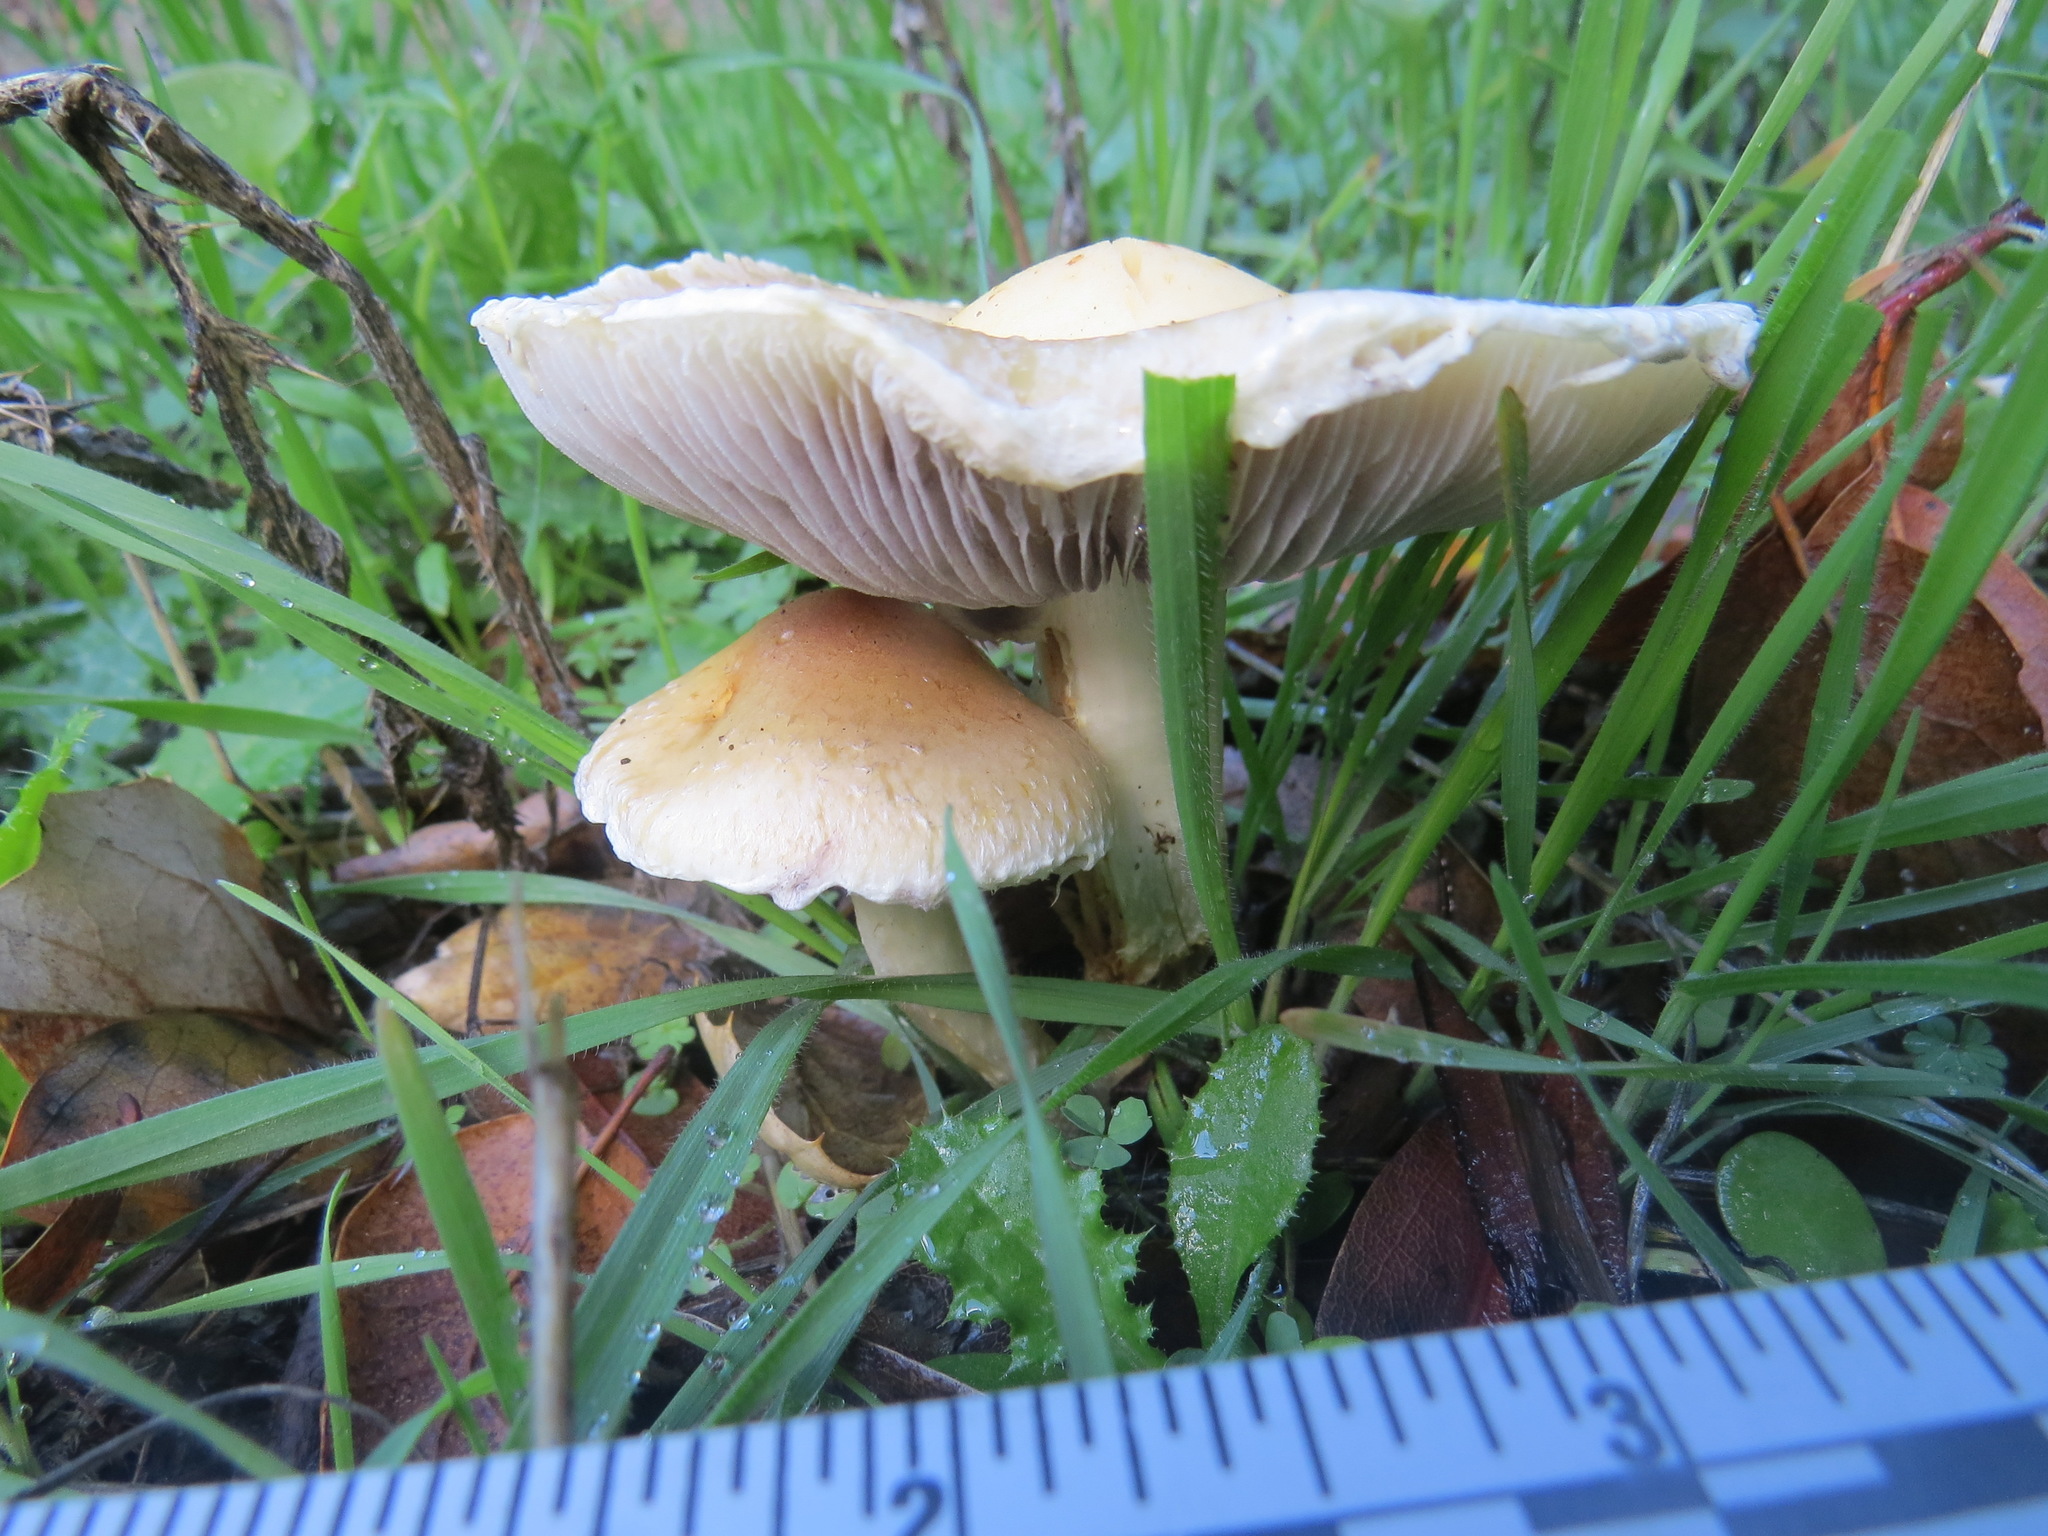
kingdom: Fungi
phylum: Basidiomycota
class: Agaricomycetes
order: Agaricales
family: Strophariaceae
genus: Leratiomyces
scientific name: Leratiomyces percevalii
